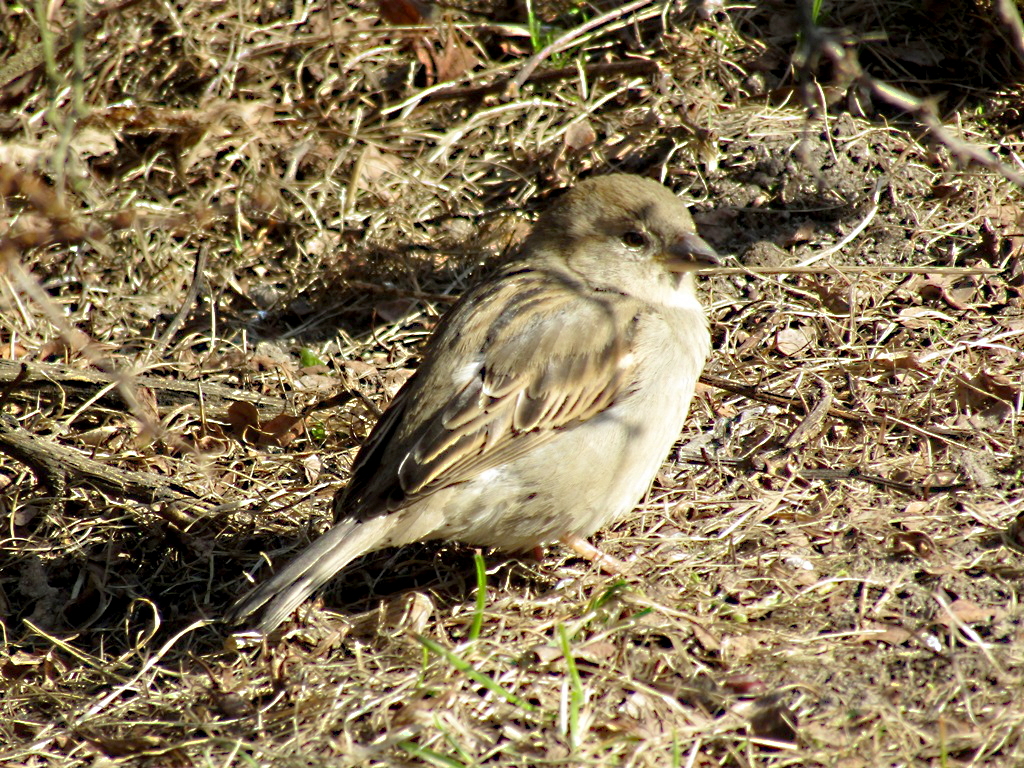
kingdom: Animalia
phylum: Chordata
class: Aves
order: Passeriformes
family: Passeridae
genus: Passer
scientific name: Passer domesticus
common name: House sparrow
